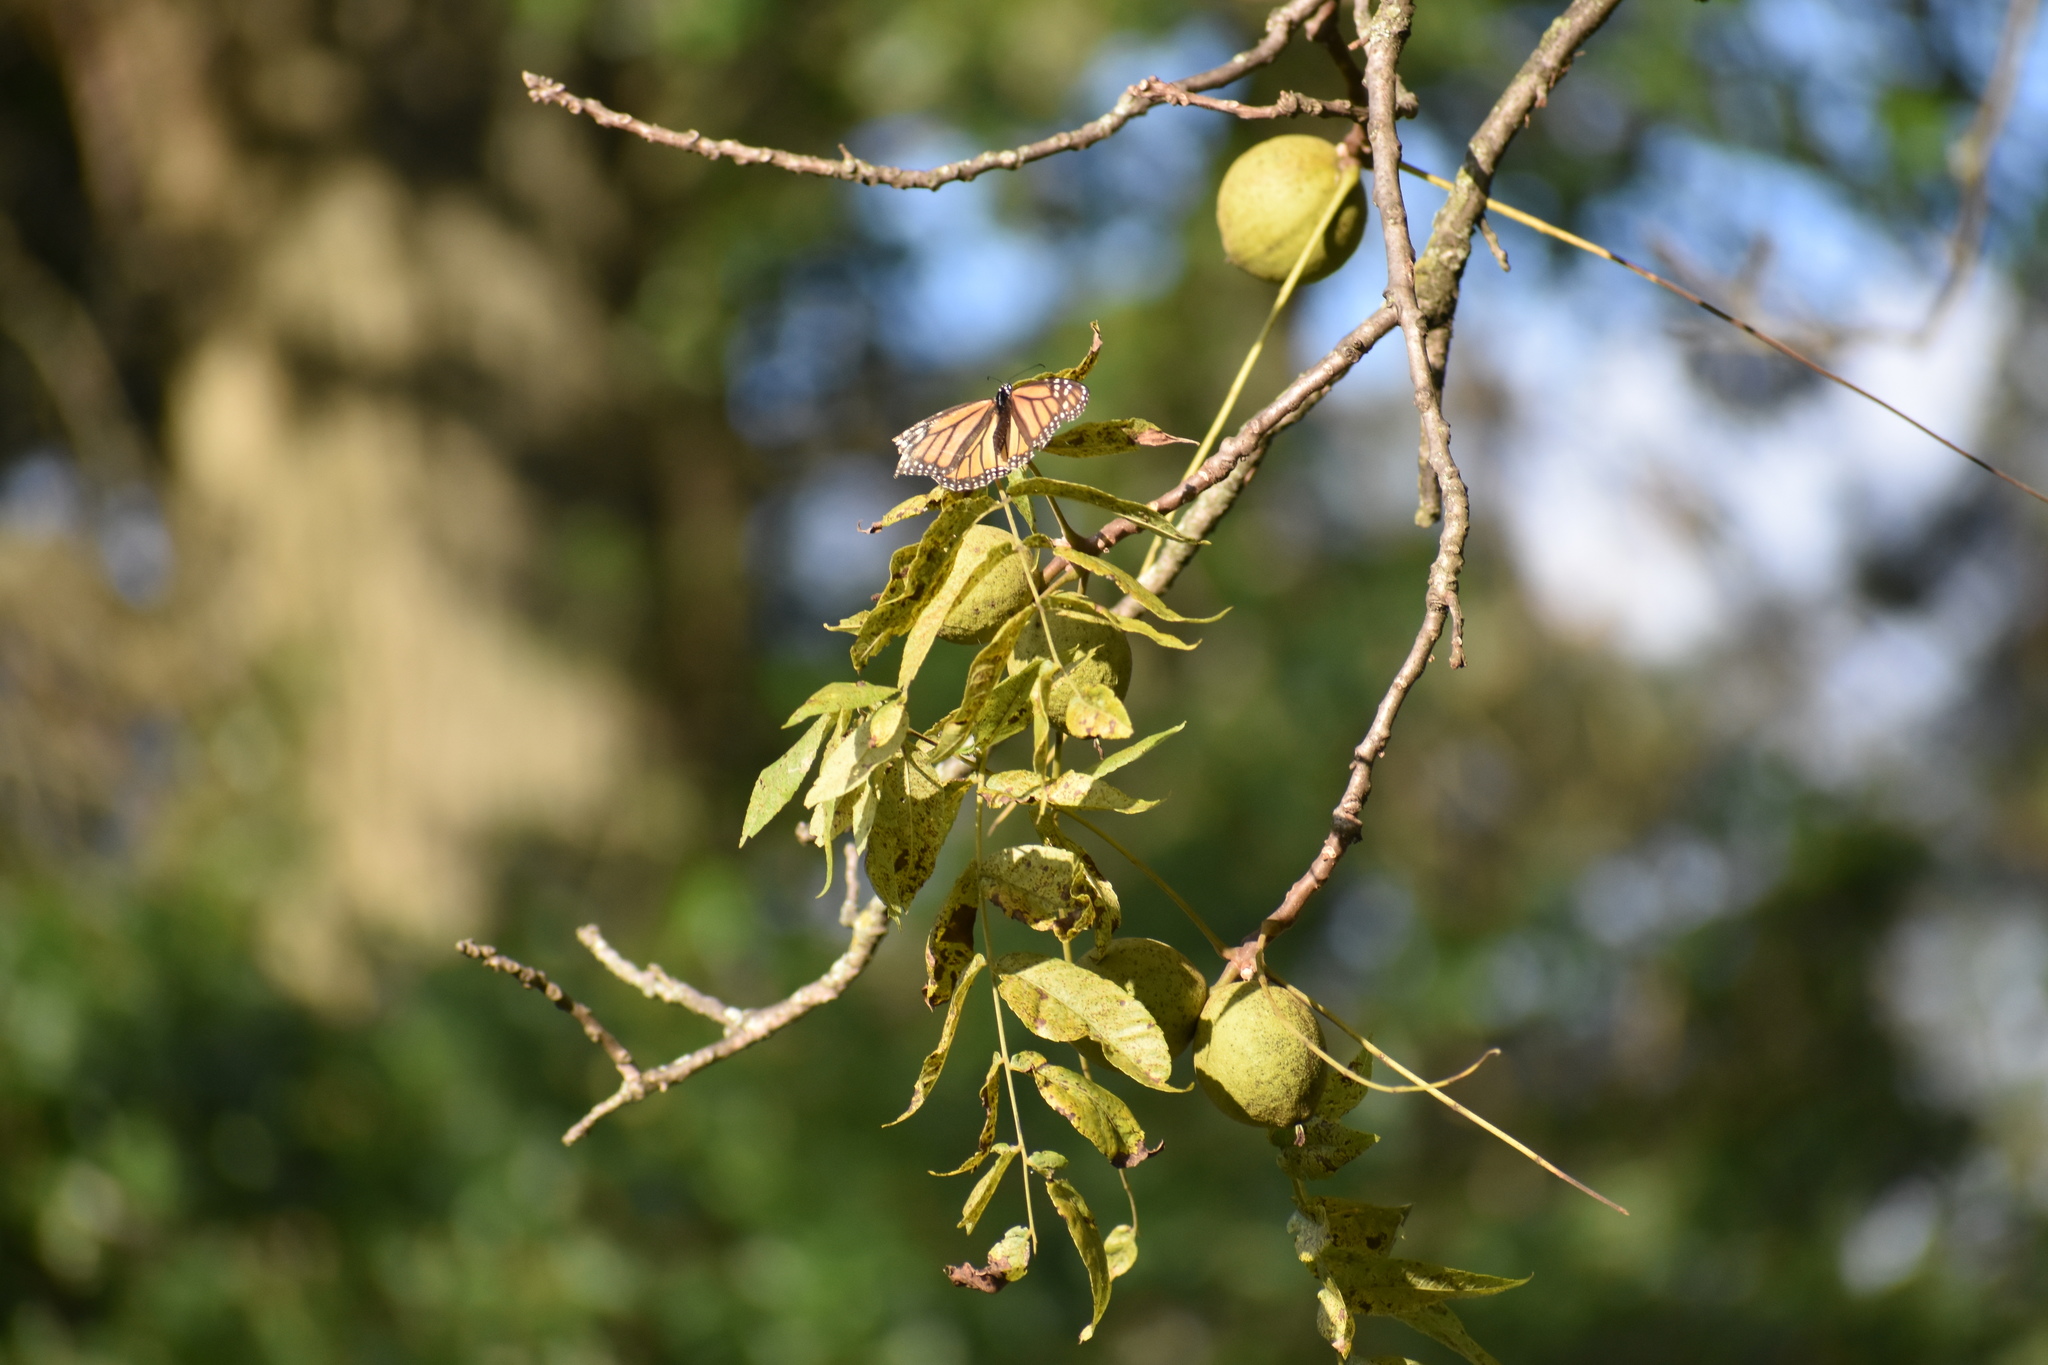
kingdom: Animalia
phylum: Arthropoda
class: Insecta
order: Lepidoptera
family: Nymphalidae
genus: Danaus
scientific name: Danaus plexippus
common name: Monarch
